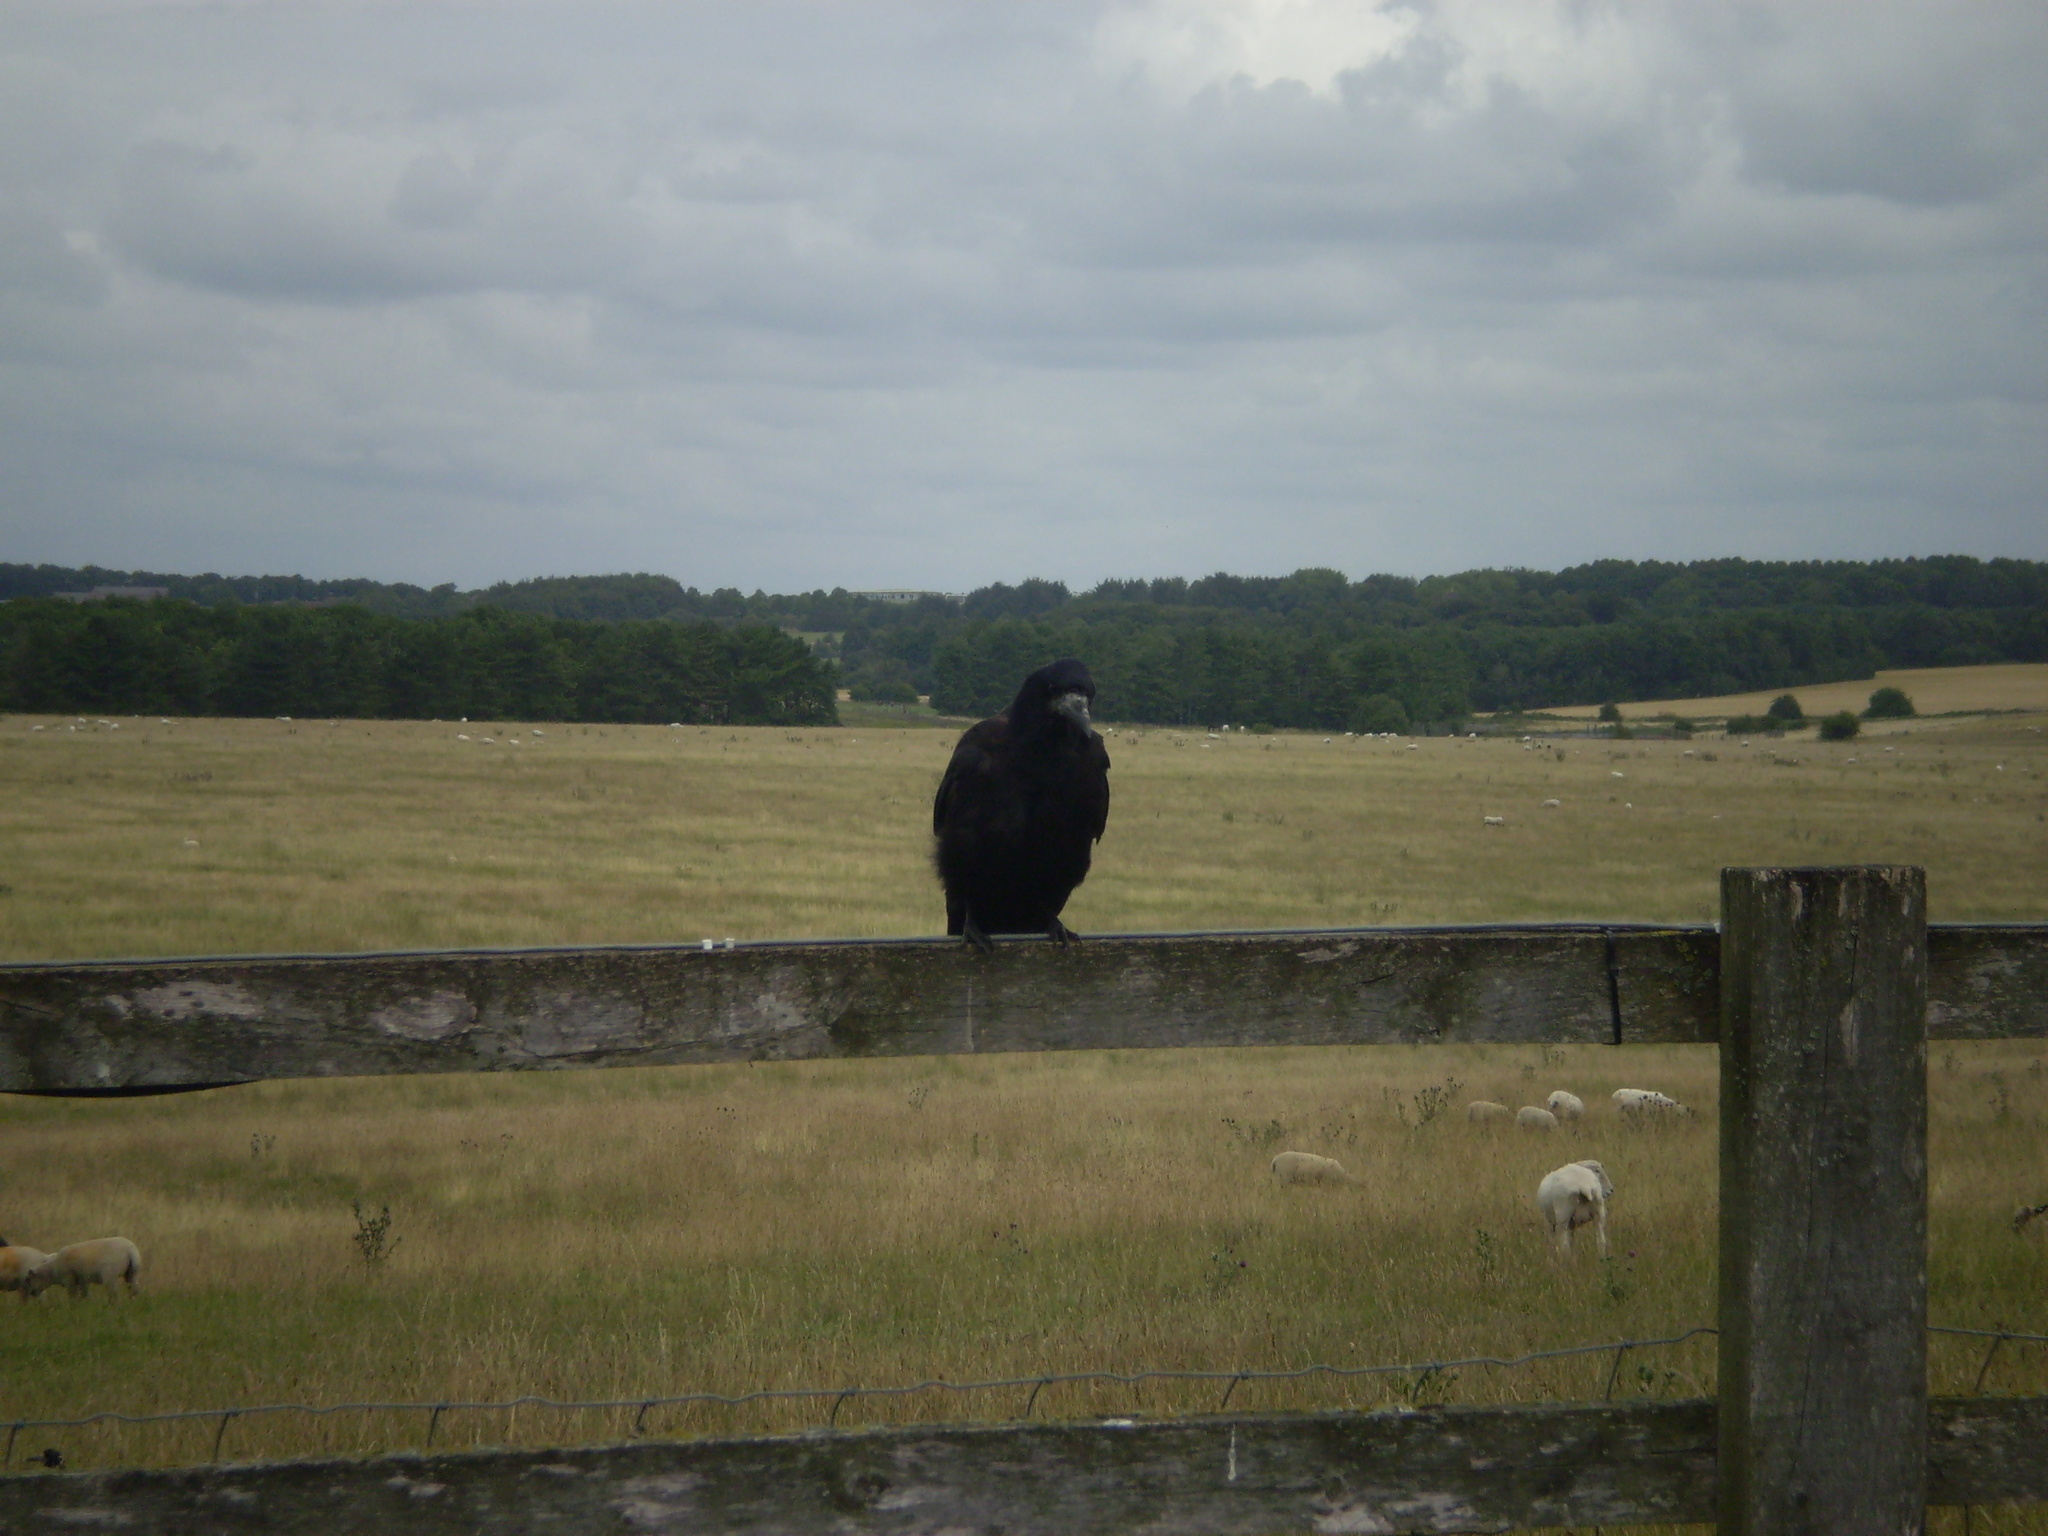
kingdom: Animalia
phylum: Chordata
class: Aves
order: Passeriformes
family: Corvidae
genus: Corvus
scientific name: Corvus frugilegus
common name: Rook
